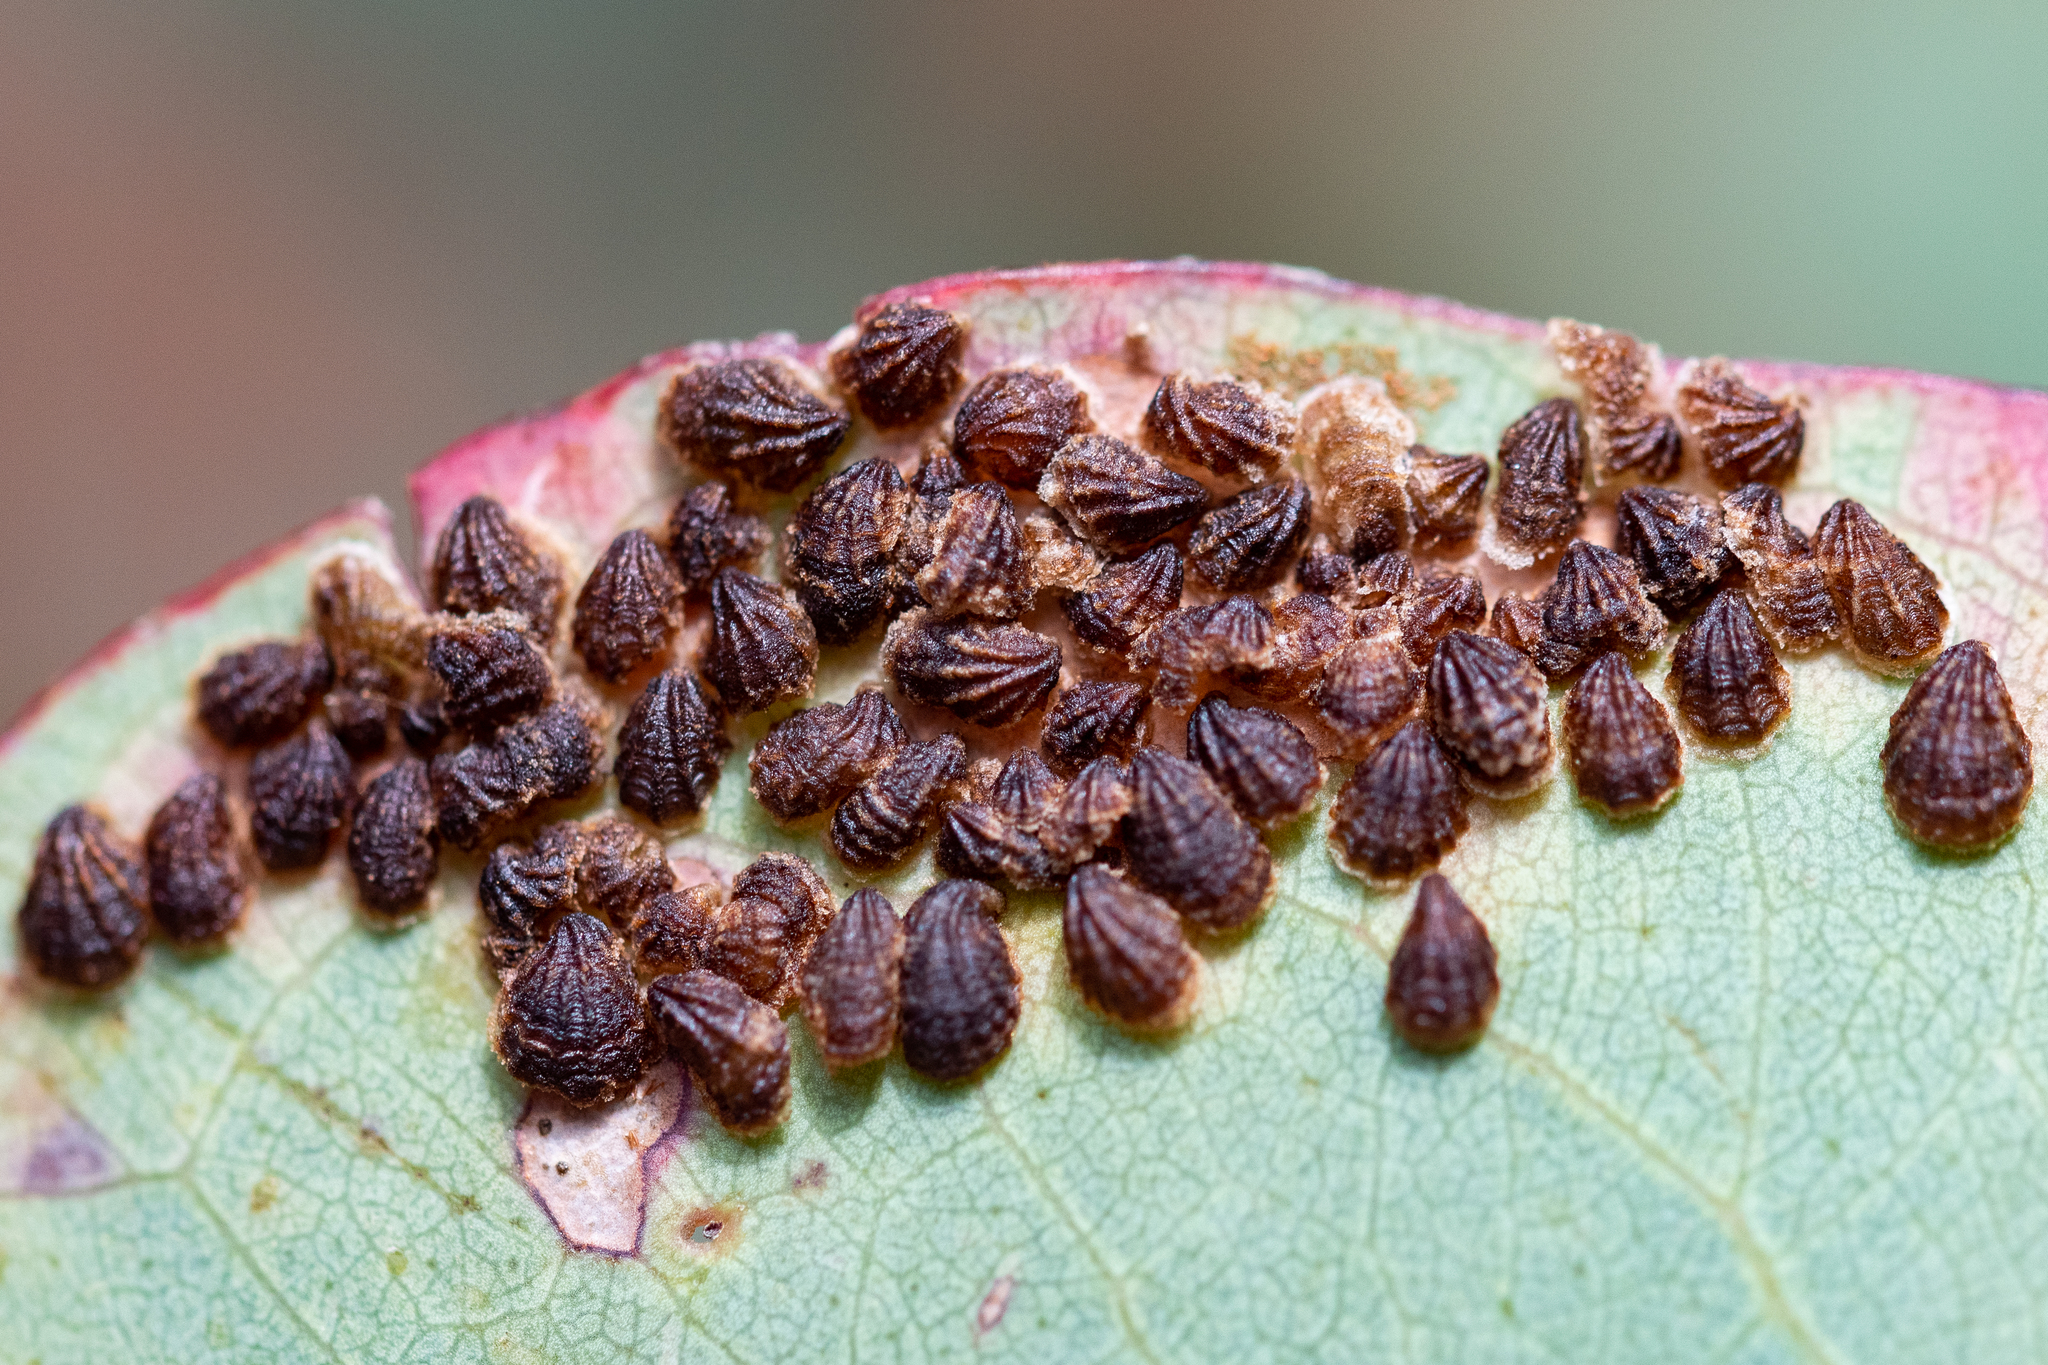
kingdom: Animalia
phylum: Arthropoda
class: Insecta
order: Hemiptera
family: Aphalaridae
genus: Spondyliaspis
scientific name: Spondyliaspis plicatuloides
